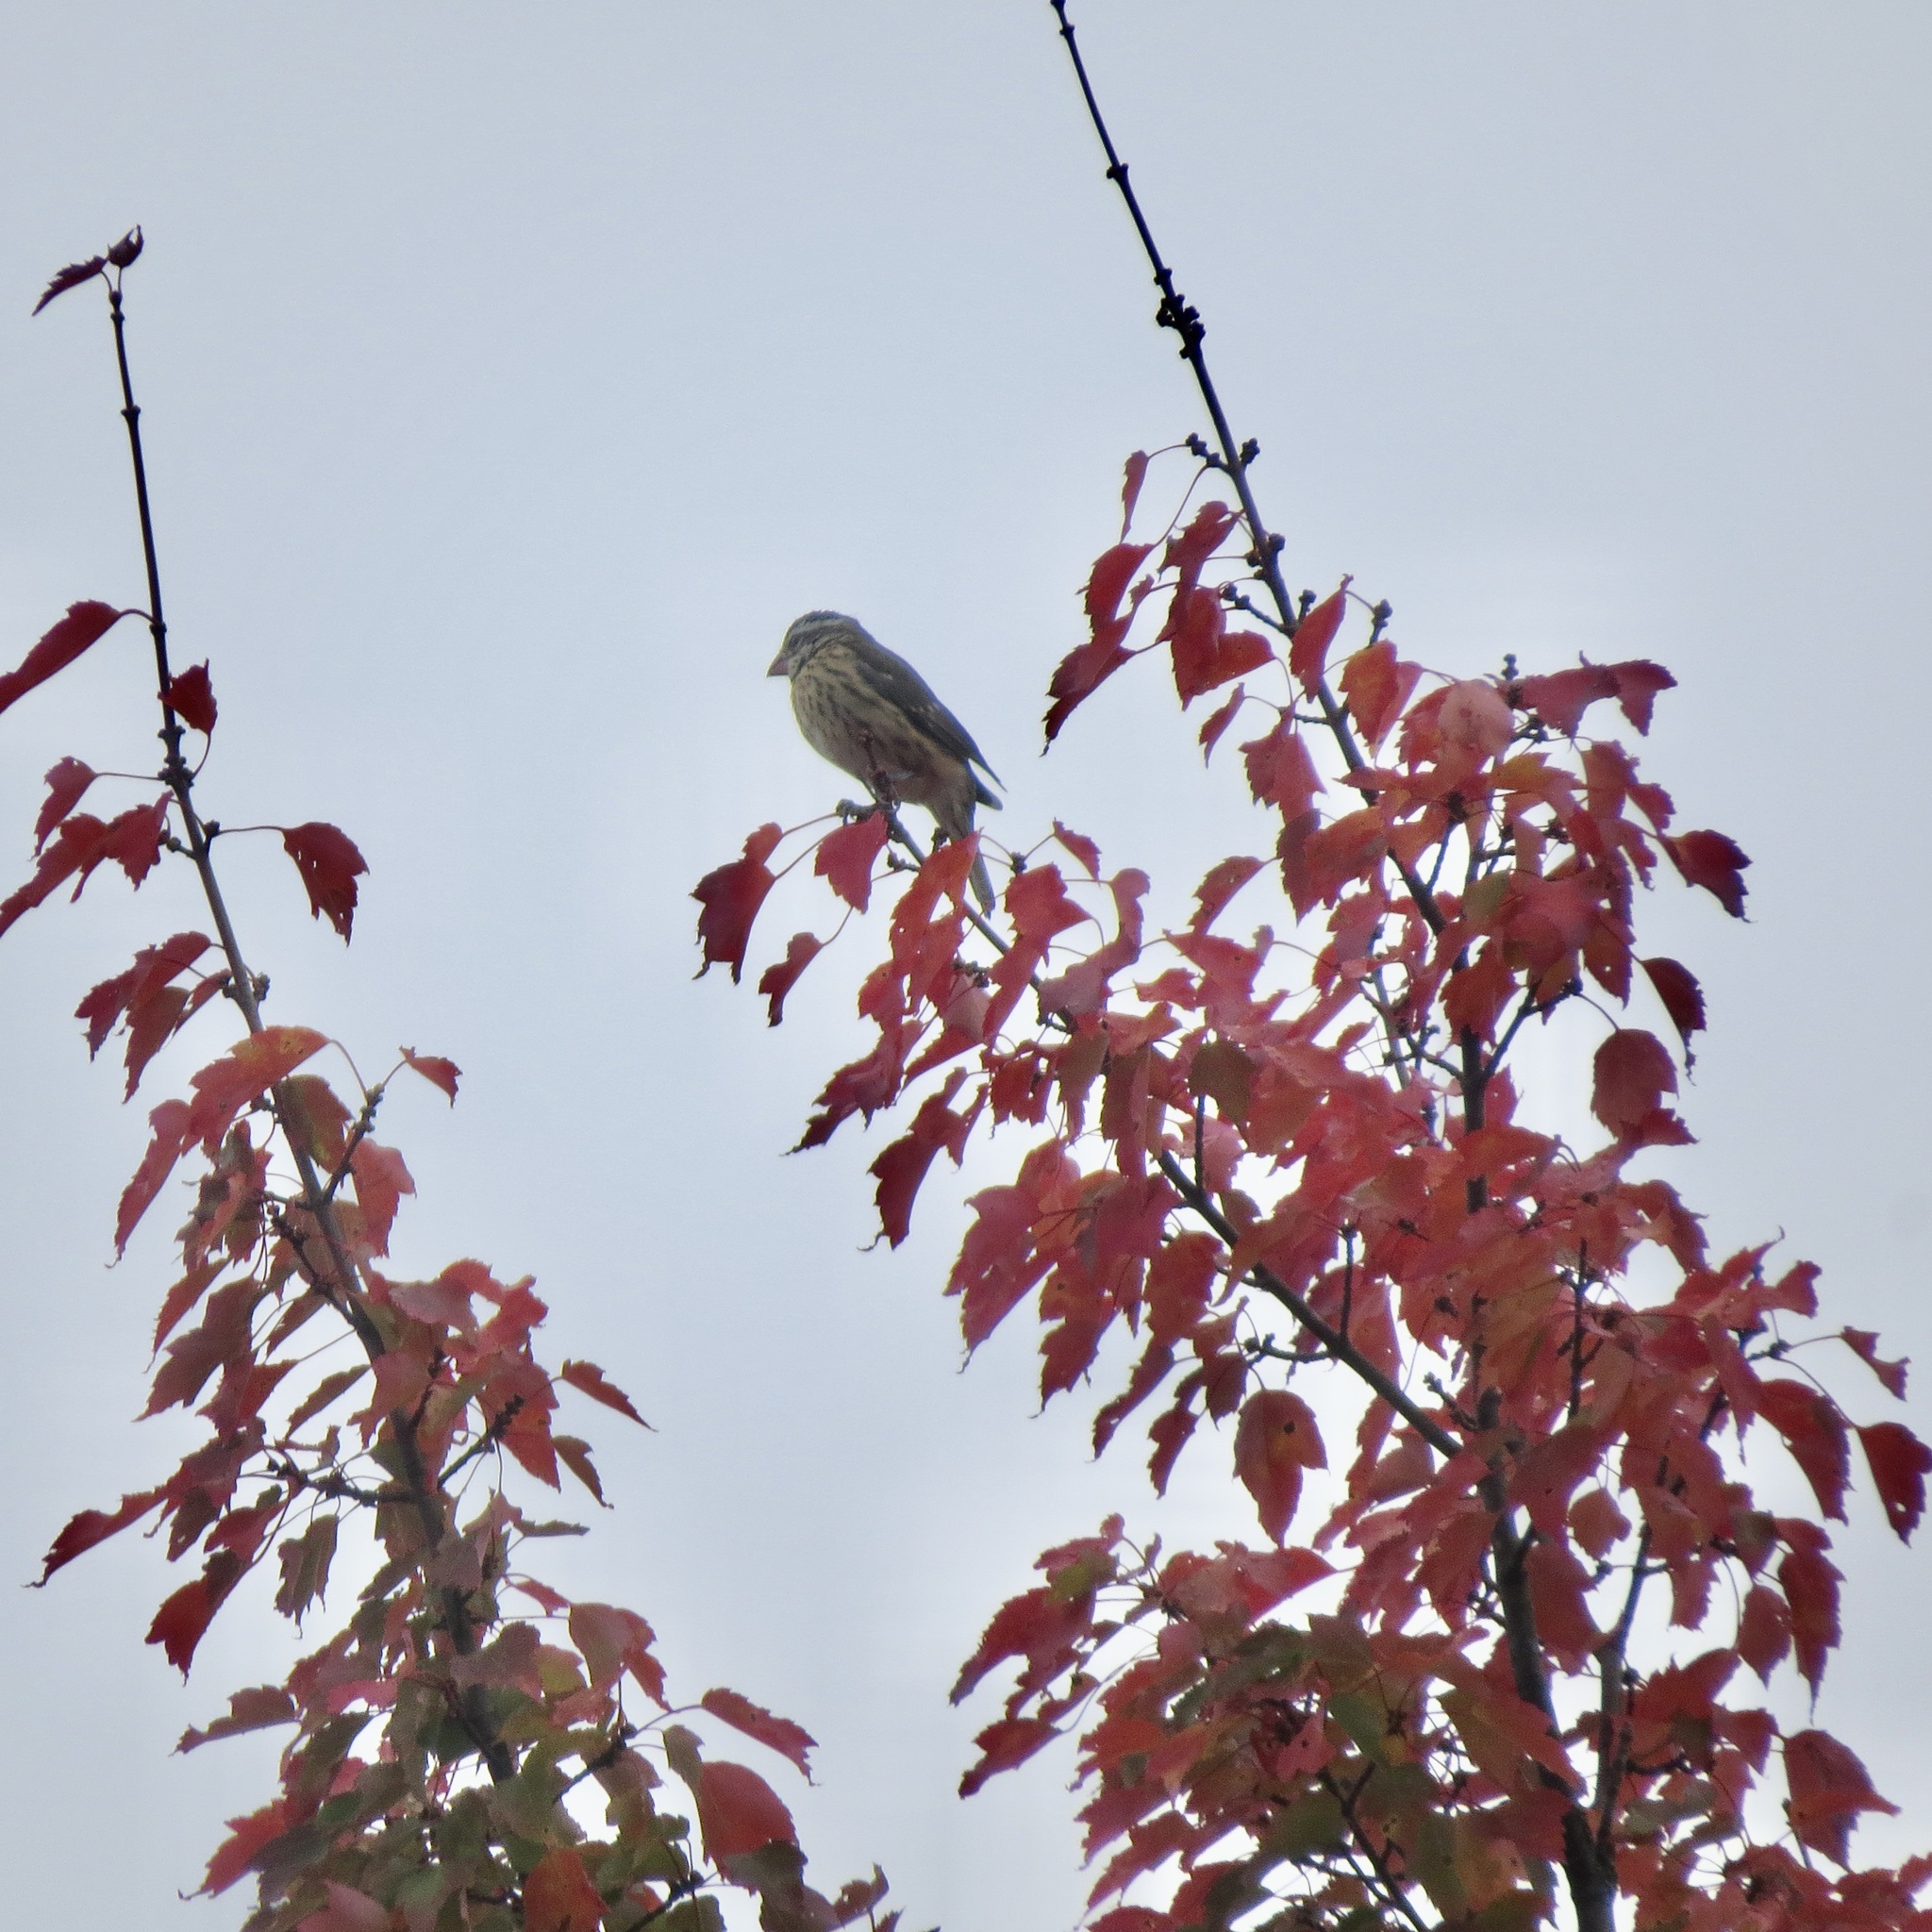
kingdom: Animalia
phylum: Chordata
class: Aves
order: Passeriformes
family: Cardinalidae
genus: Pheucticus
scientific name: Pheucticus ludovicianus
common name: Rose-breasted grosbeak
